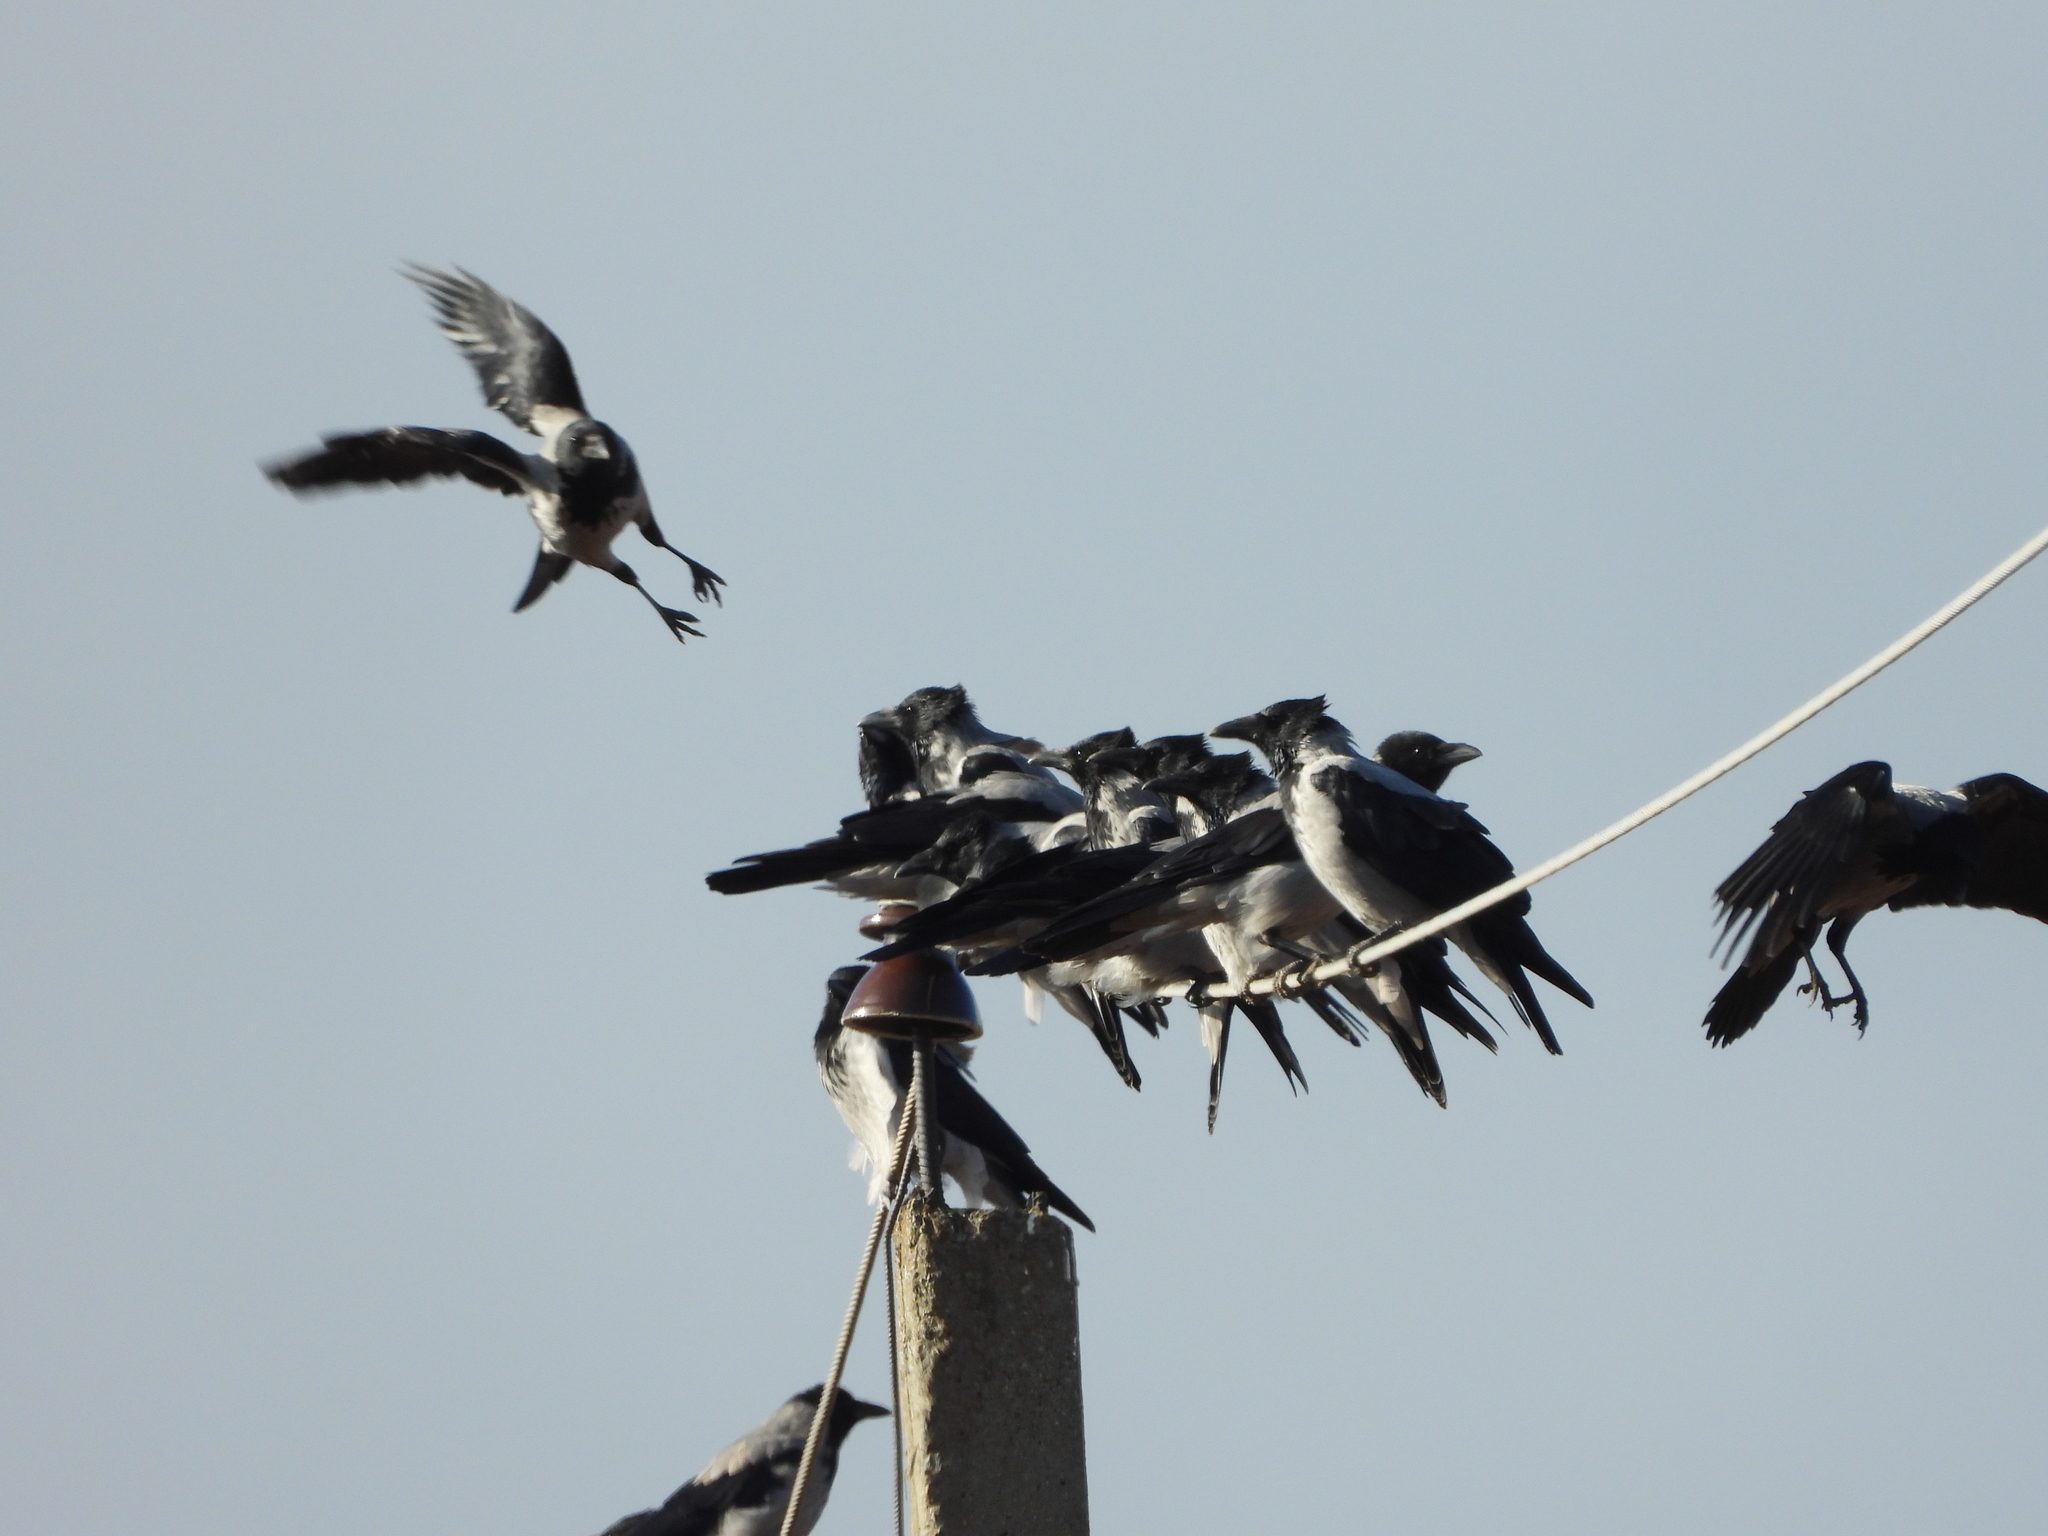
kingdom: Animalia
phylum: Chordata
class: Aves
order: Passeriformes
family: Corvidae
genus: Corvus
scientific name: Corvus cornix
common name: Hooded crow
